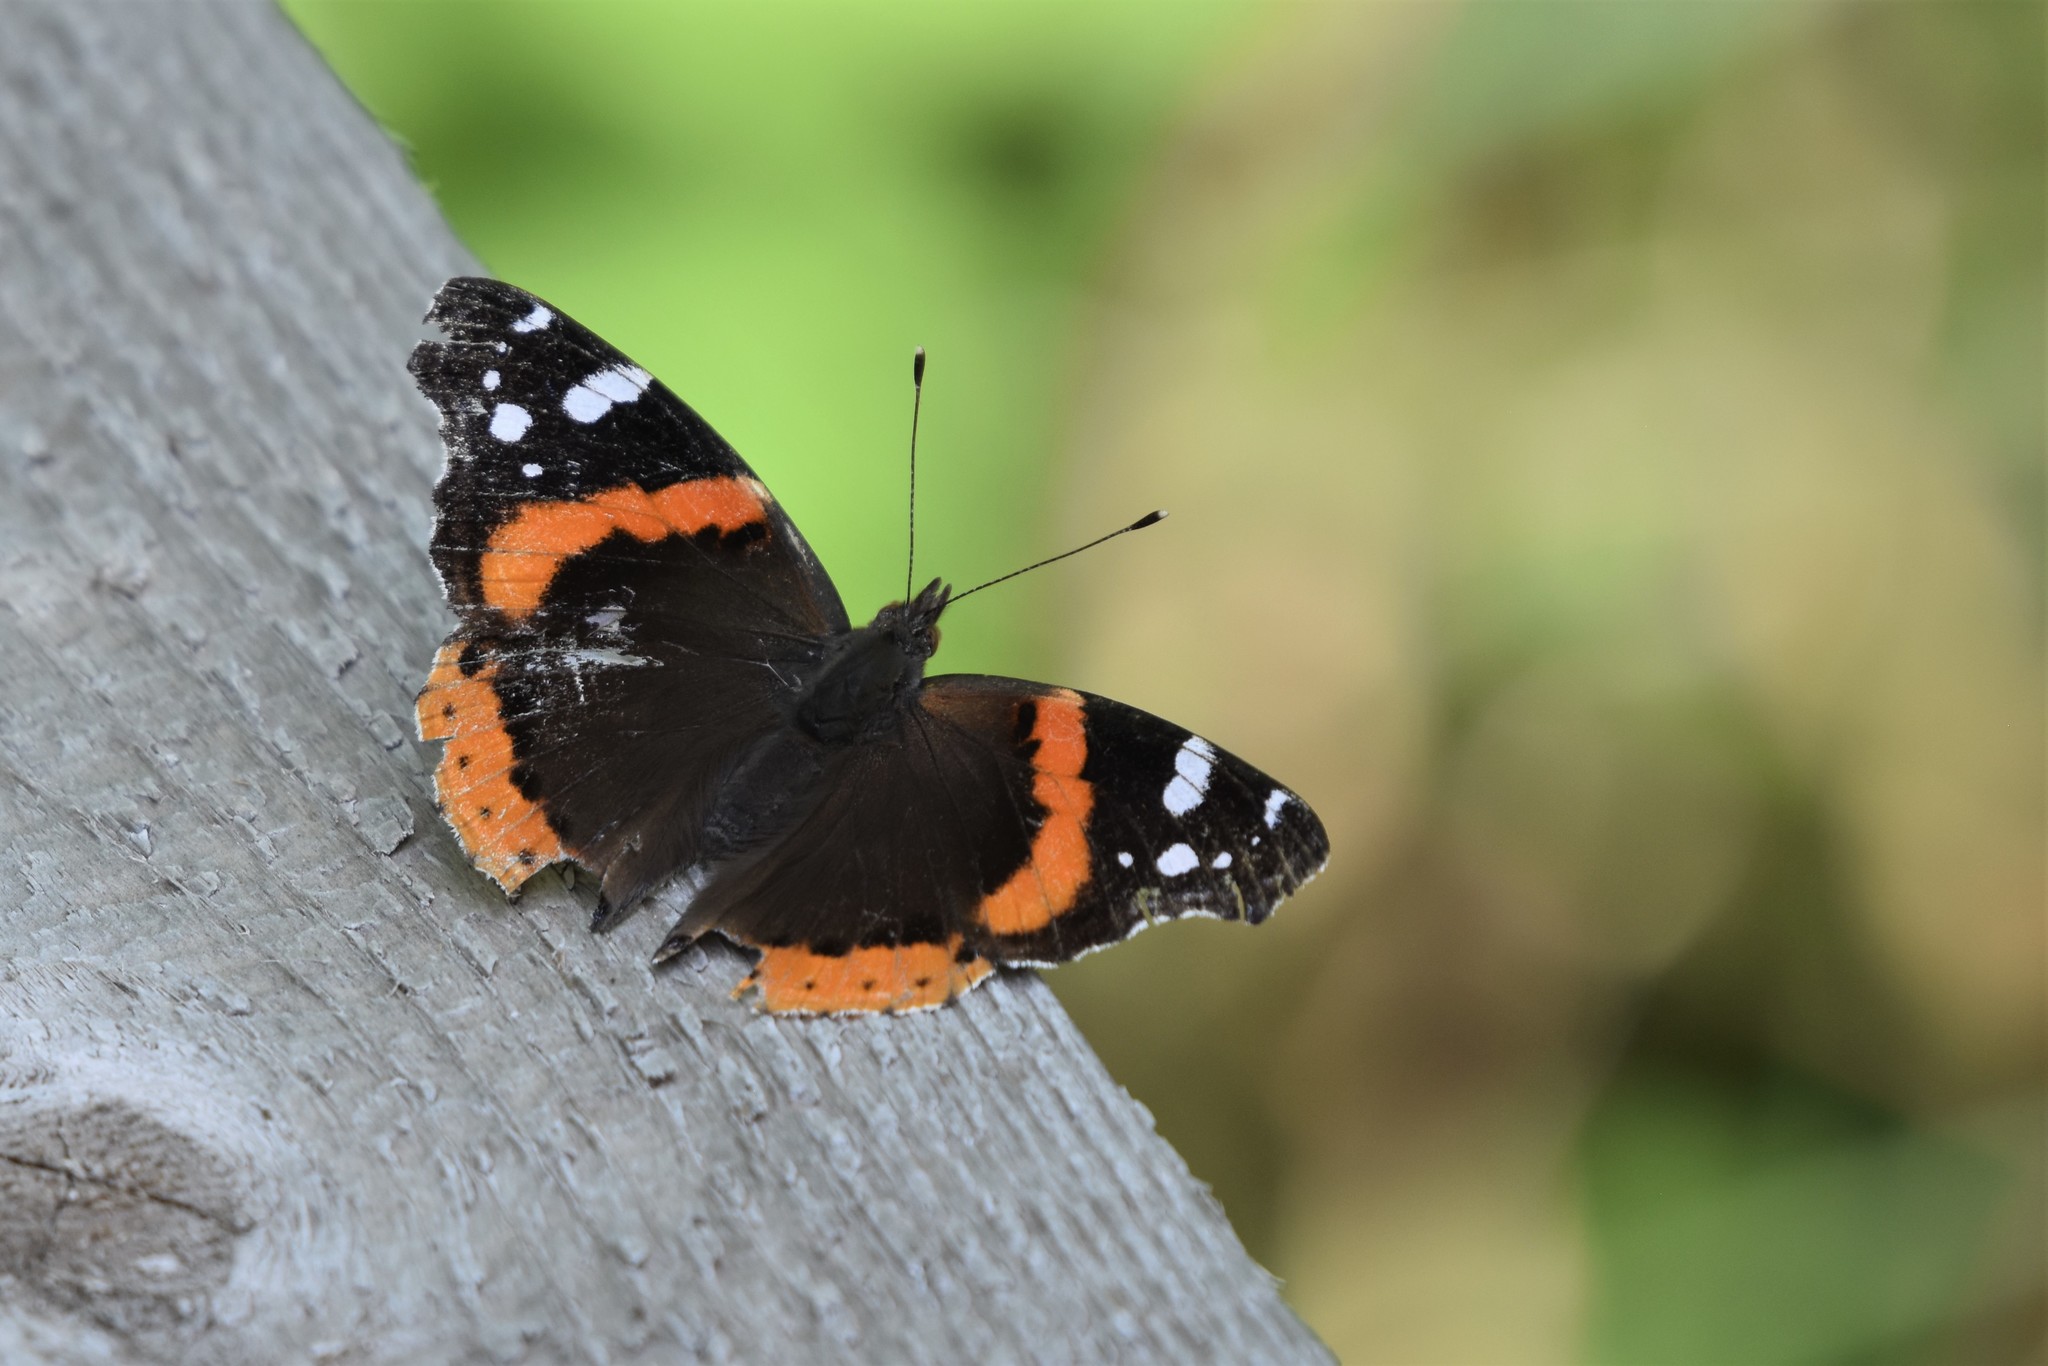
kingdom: Animalia
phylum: Arthropoda
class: Insecta
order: Lepidoptera
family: Nymphalidae
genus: Vanessa
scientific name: Vanessa atalanta
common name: Red admiral
